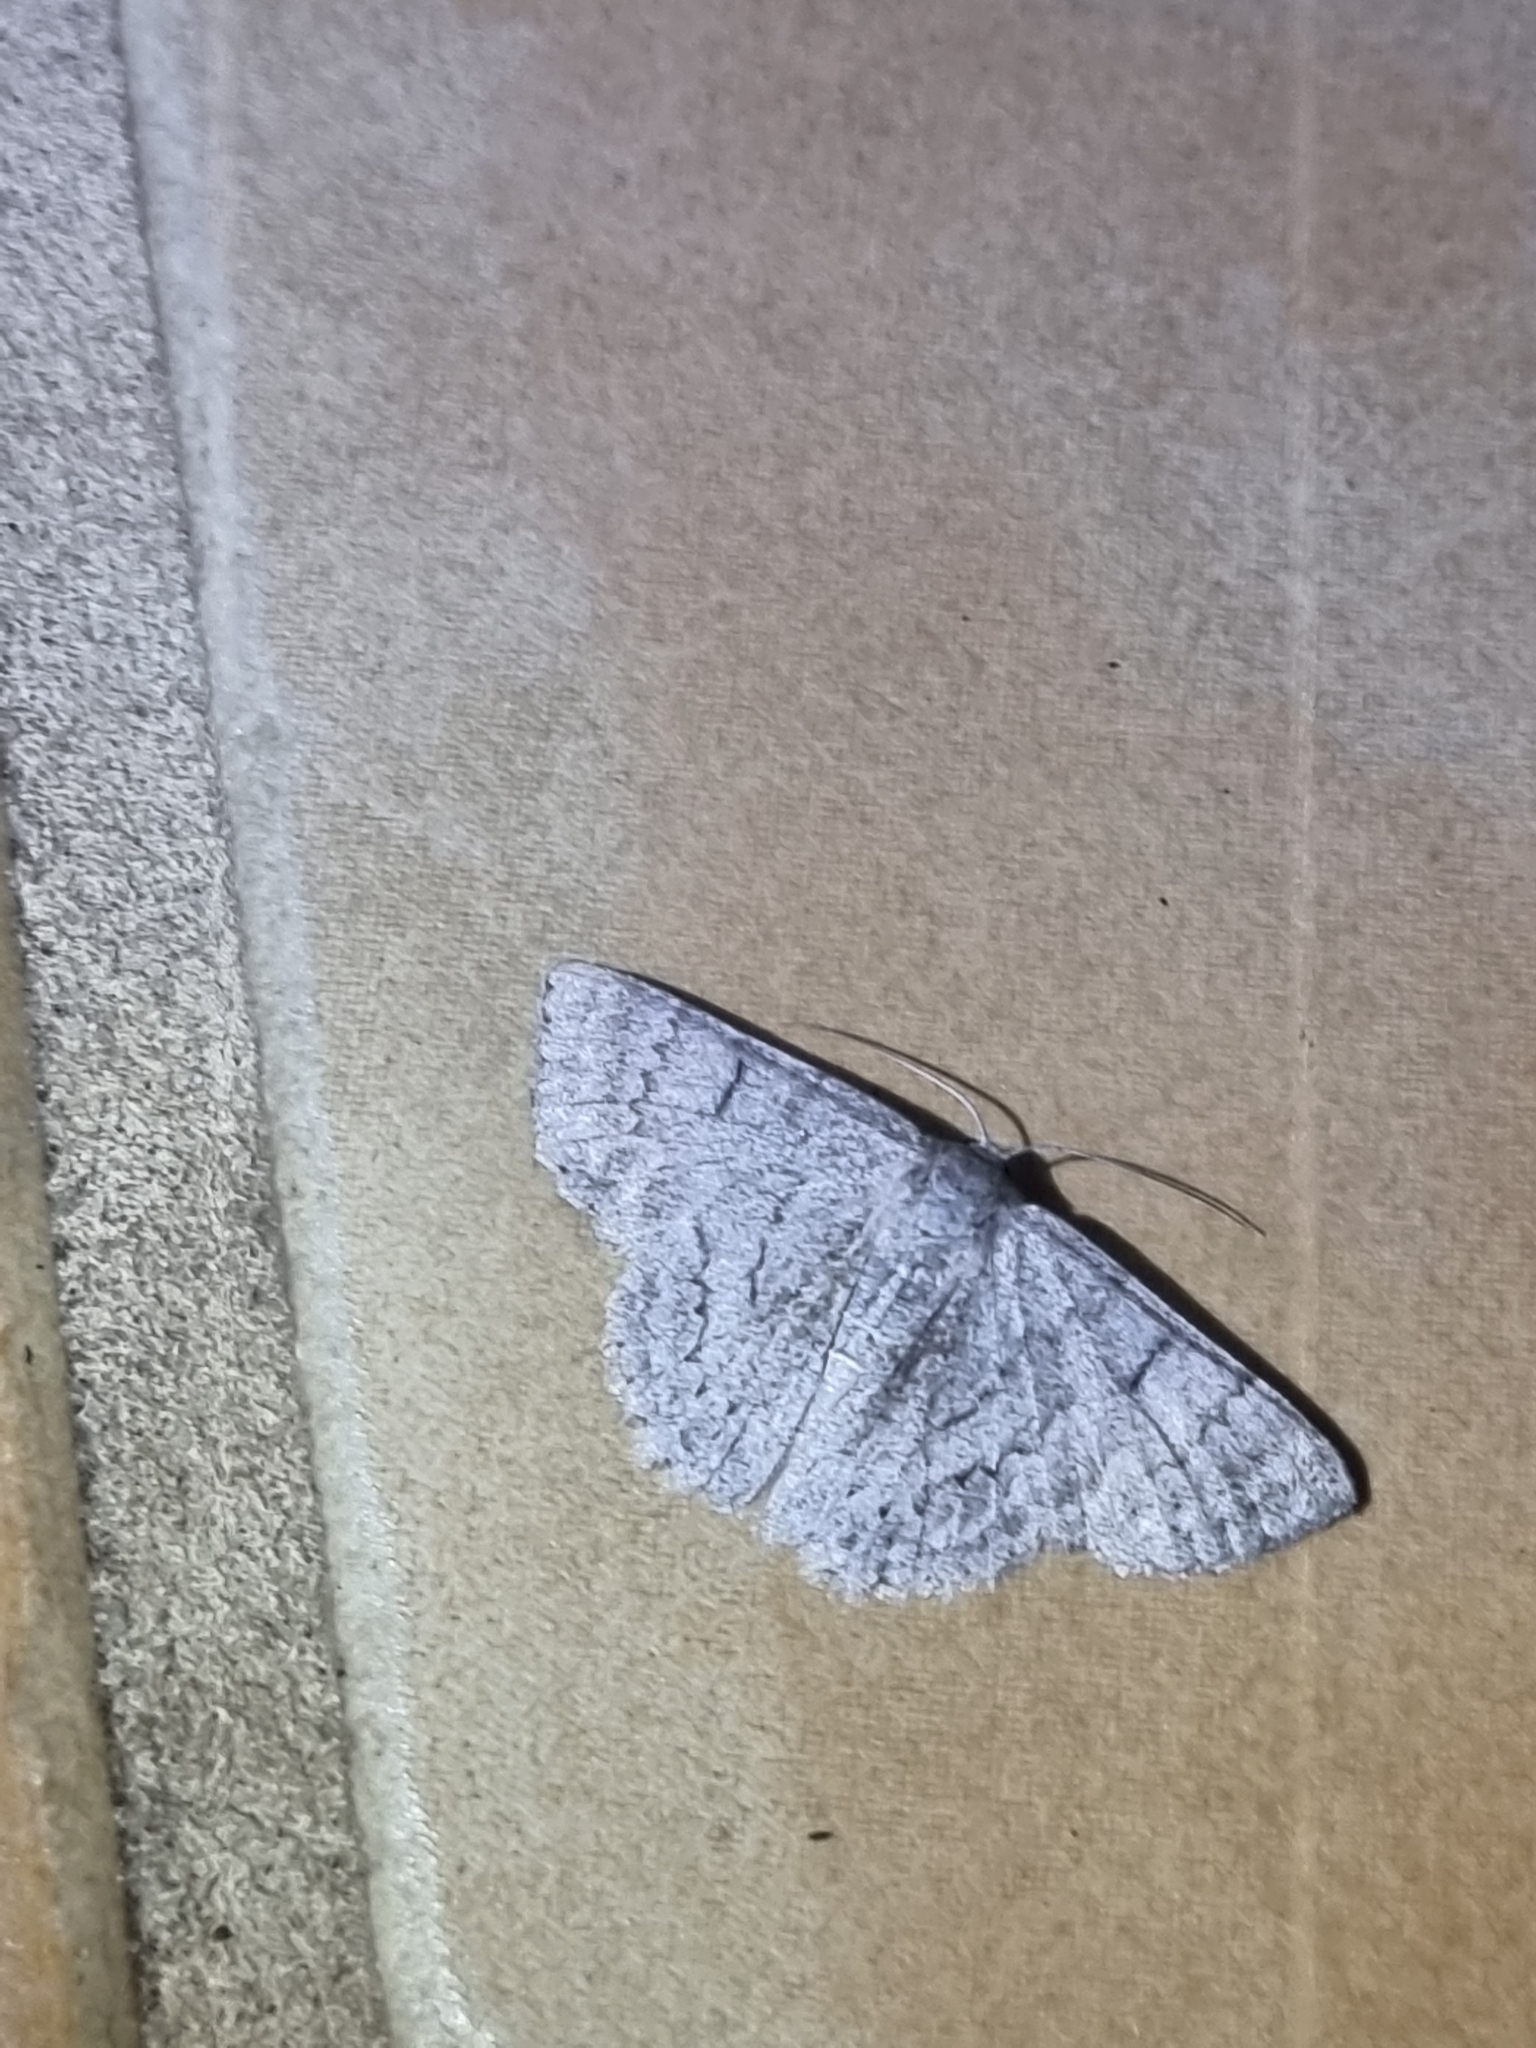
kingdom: Animalia
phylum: Arthropoda
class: Insecta
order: Lepidoptera
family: Geometridae
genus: Crypsiphona
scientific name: Crypsiphona ocultaria
